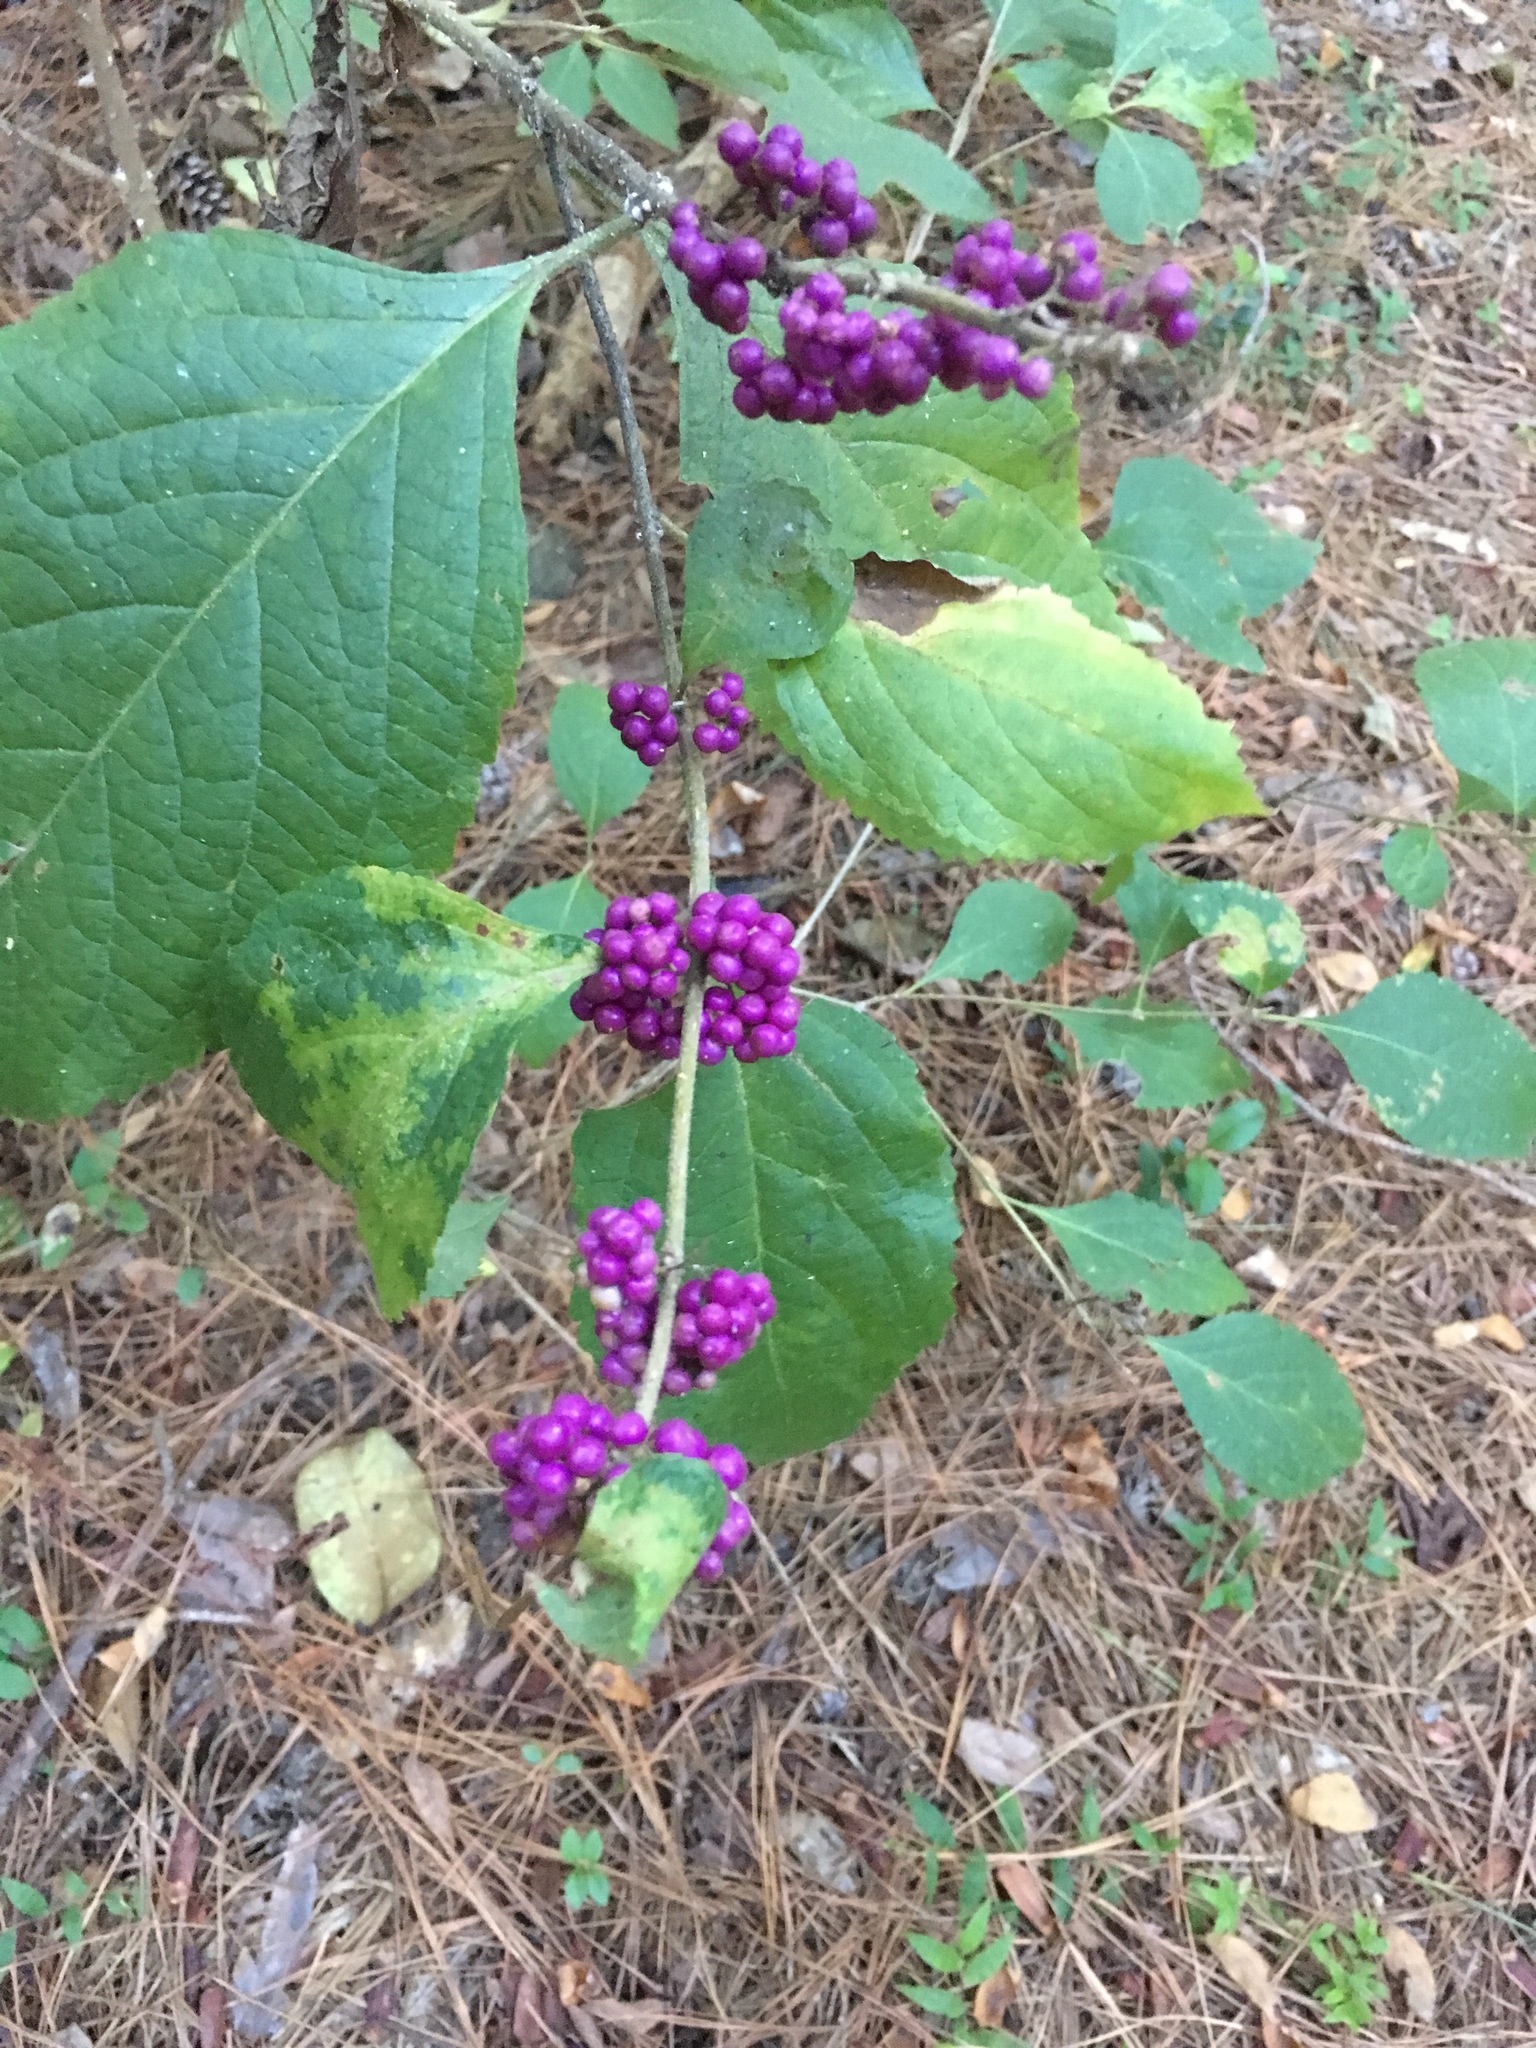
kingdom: Plantae
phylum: Tracheophyta
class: Magnoliopsida
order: Lamiales
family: Lamiaceae
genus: Callicarpa
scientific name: Callicarpa americana
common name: American beautyberry
